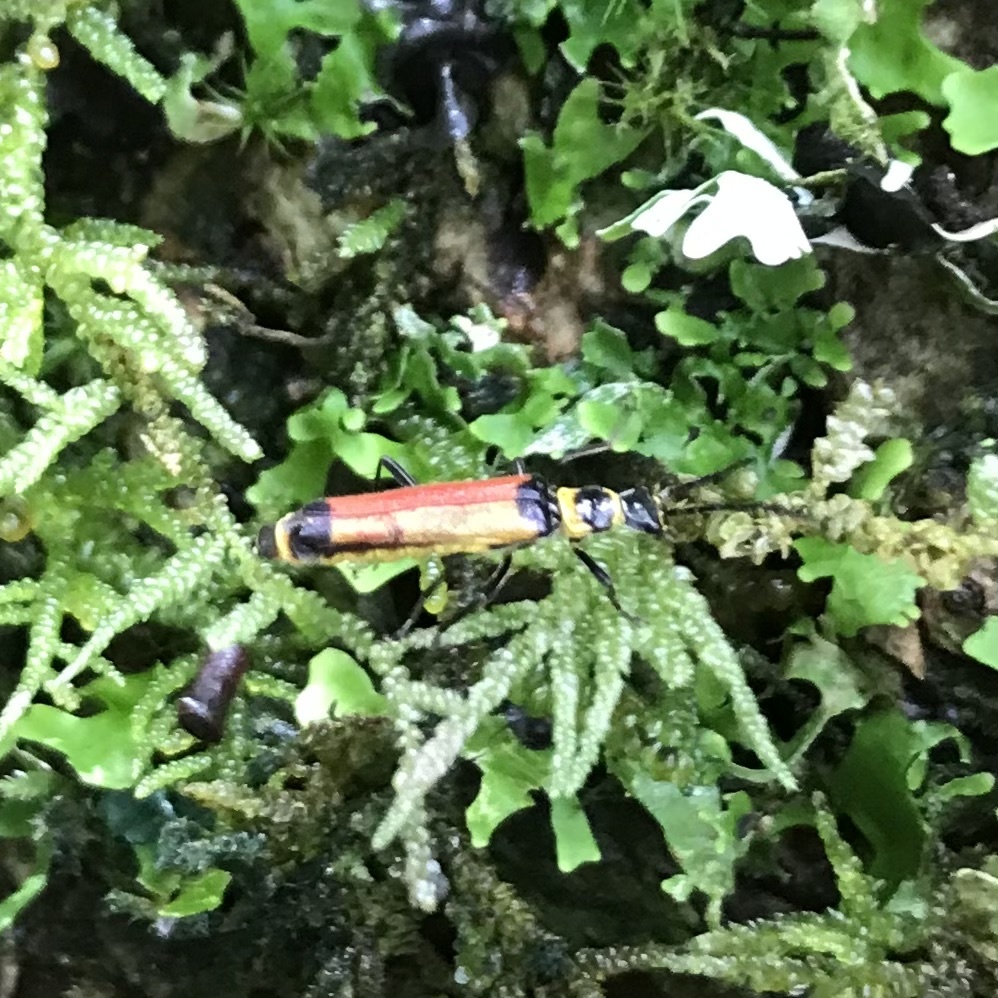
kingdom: Animalia
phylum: Arthropoda
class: Insecta
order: Coleoptera
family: Cantharidae
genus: Chauliognathus
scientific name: Chauliognathus
